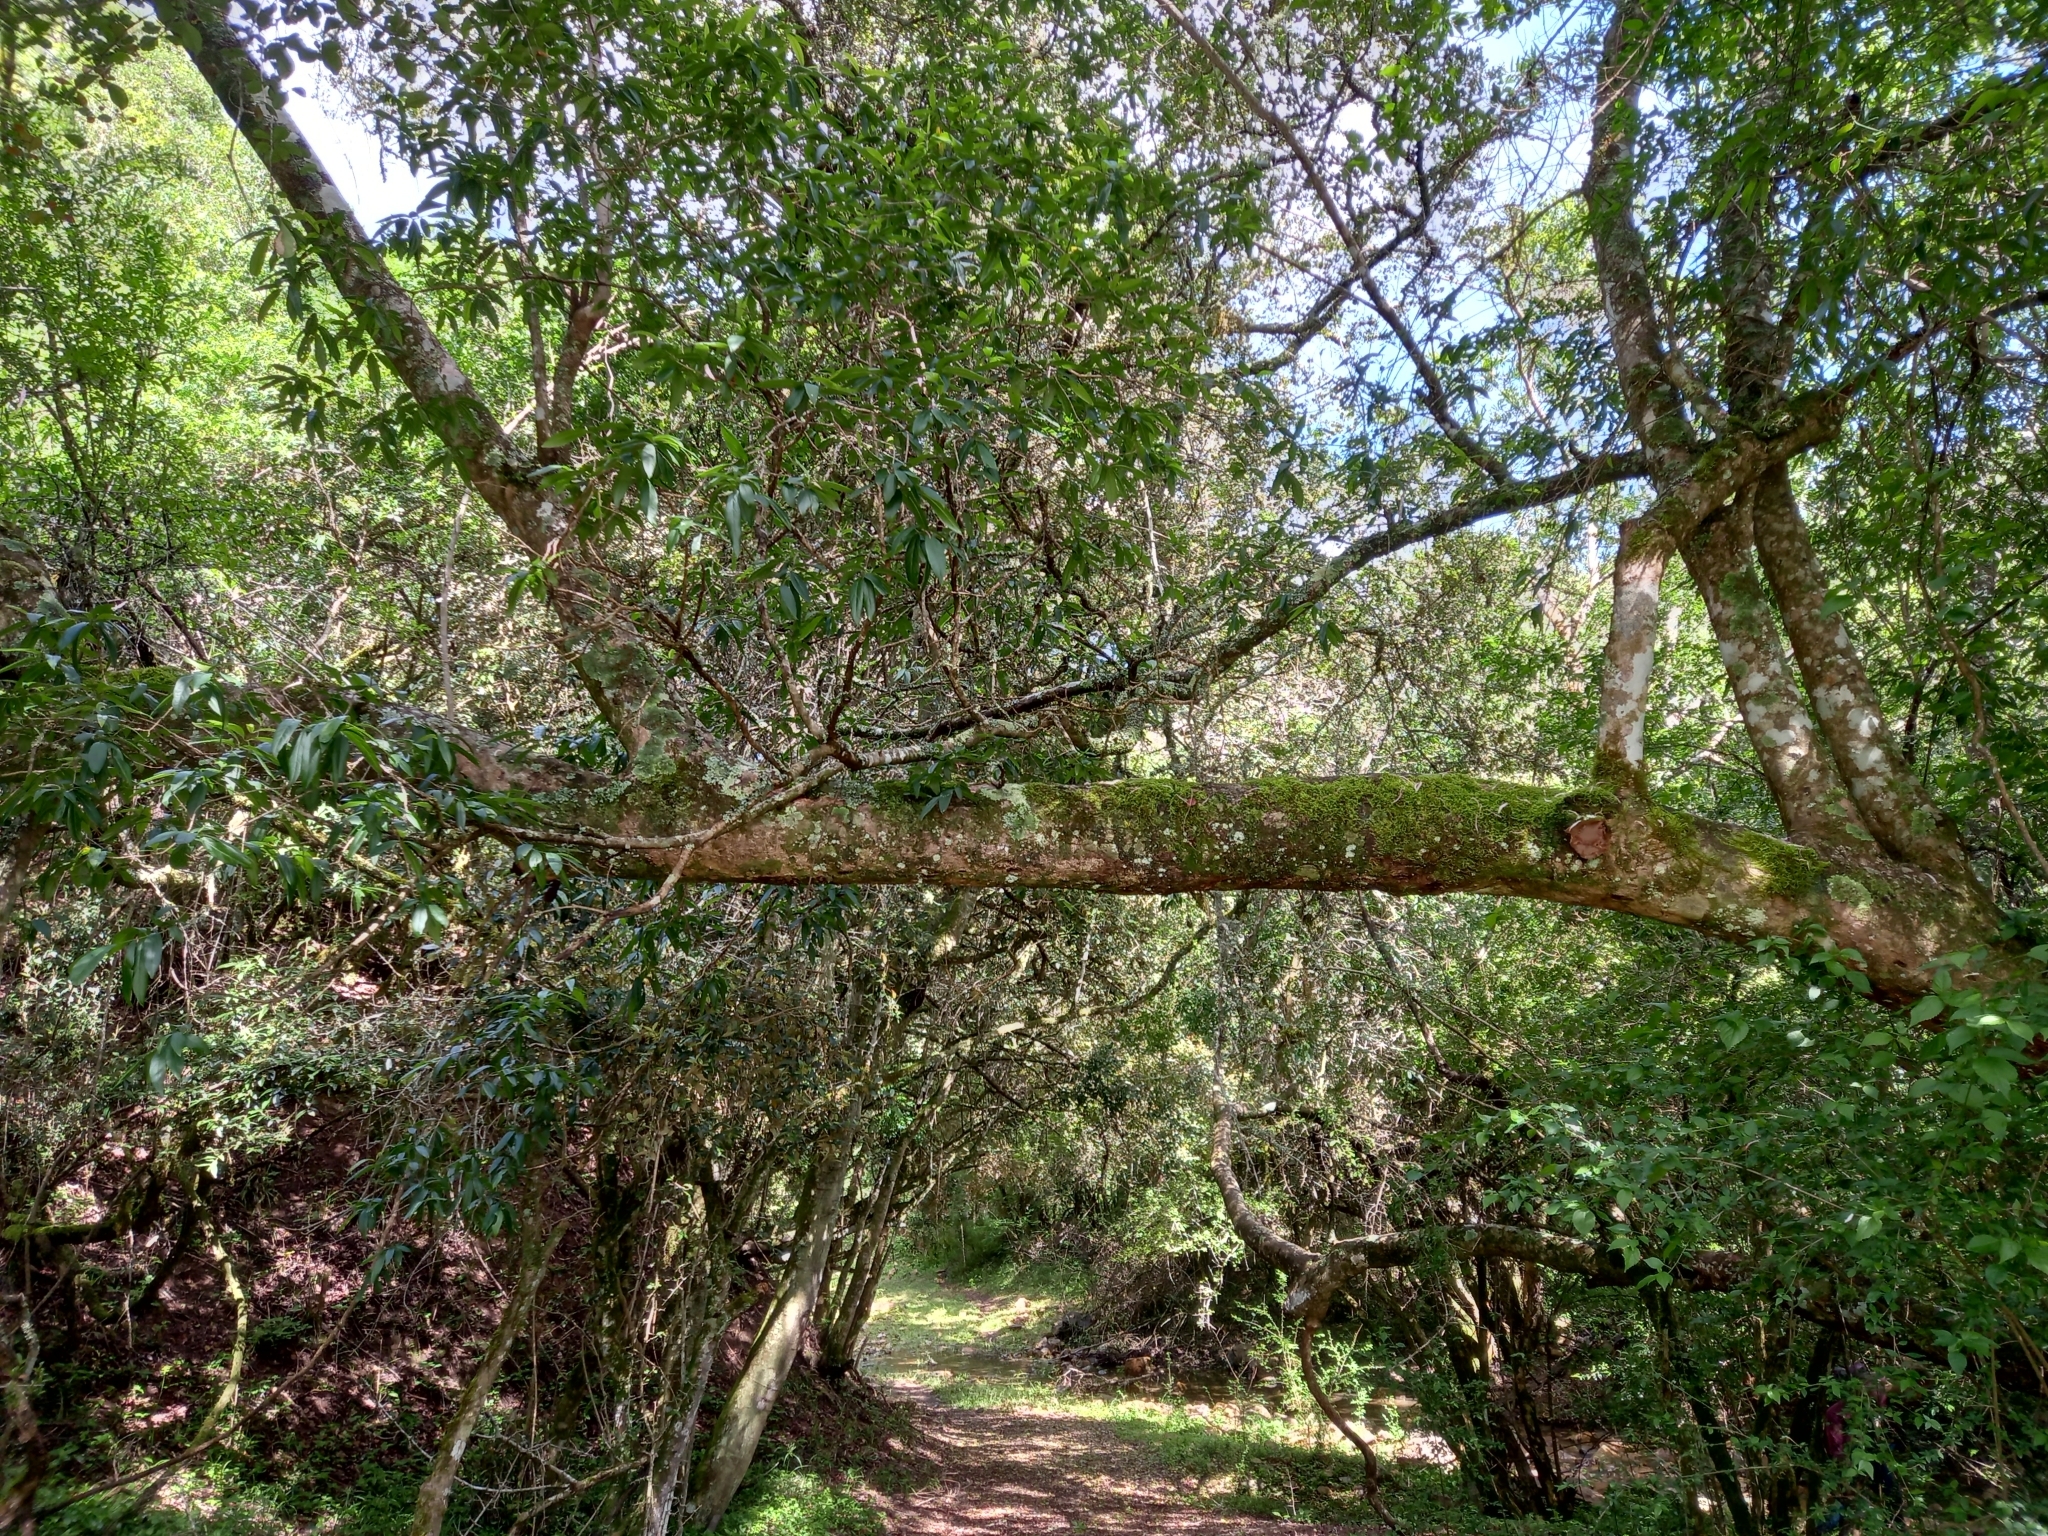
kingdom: Plantae
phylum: Tracheophyta
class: Magnoliopsida
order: Myrtales
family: Combretaceae
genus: Combretum
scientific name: Combretum caffrum
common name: Cape bushwillow
